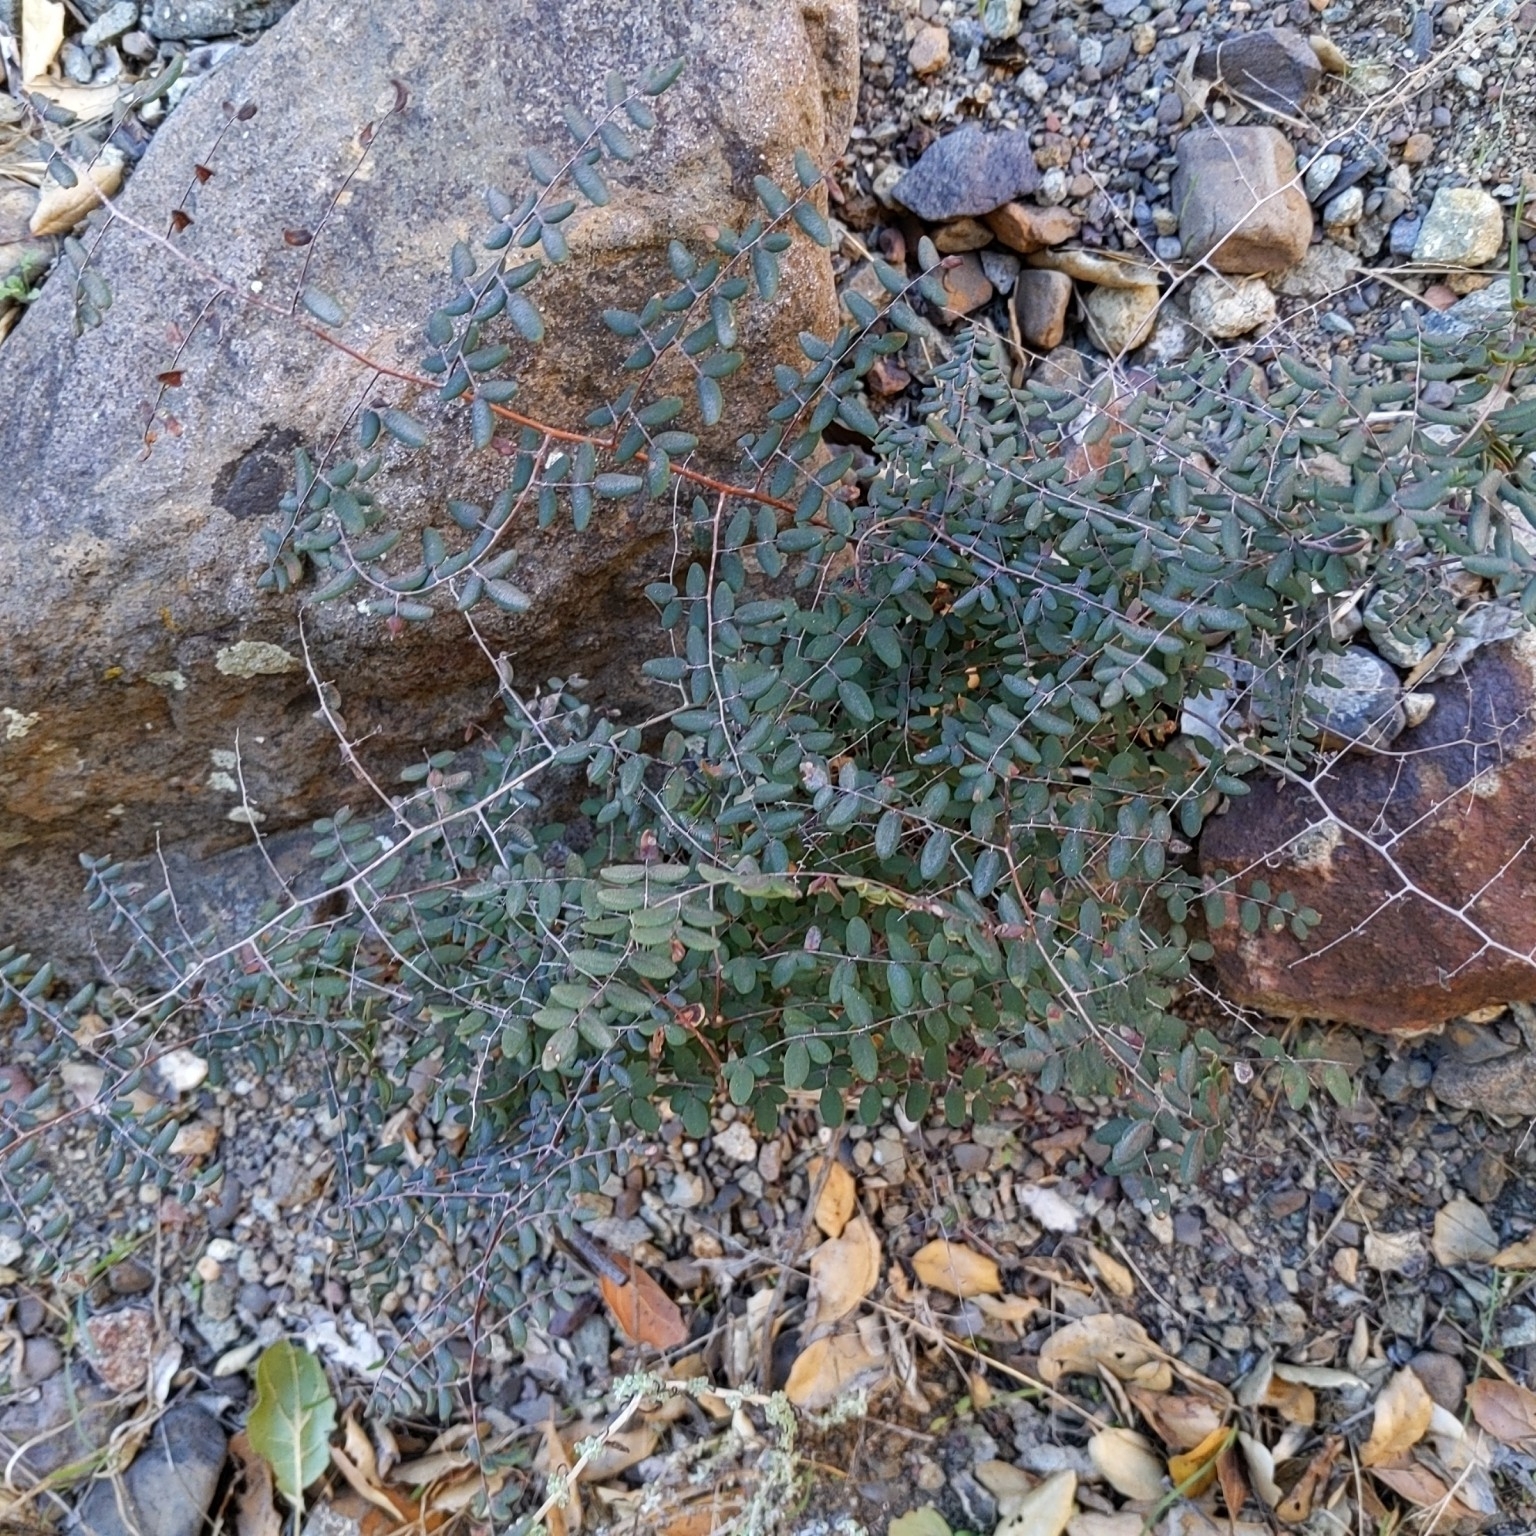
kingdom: Plantae
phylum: Tracheophyta
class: Polypodiopsida
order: Polypodiales
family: Pteridaceae
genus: Pellaea
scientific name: Pellaea andromedifolia
